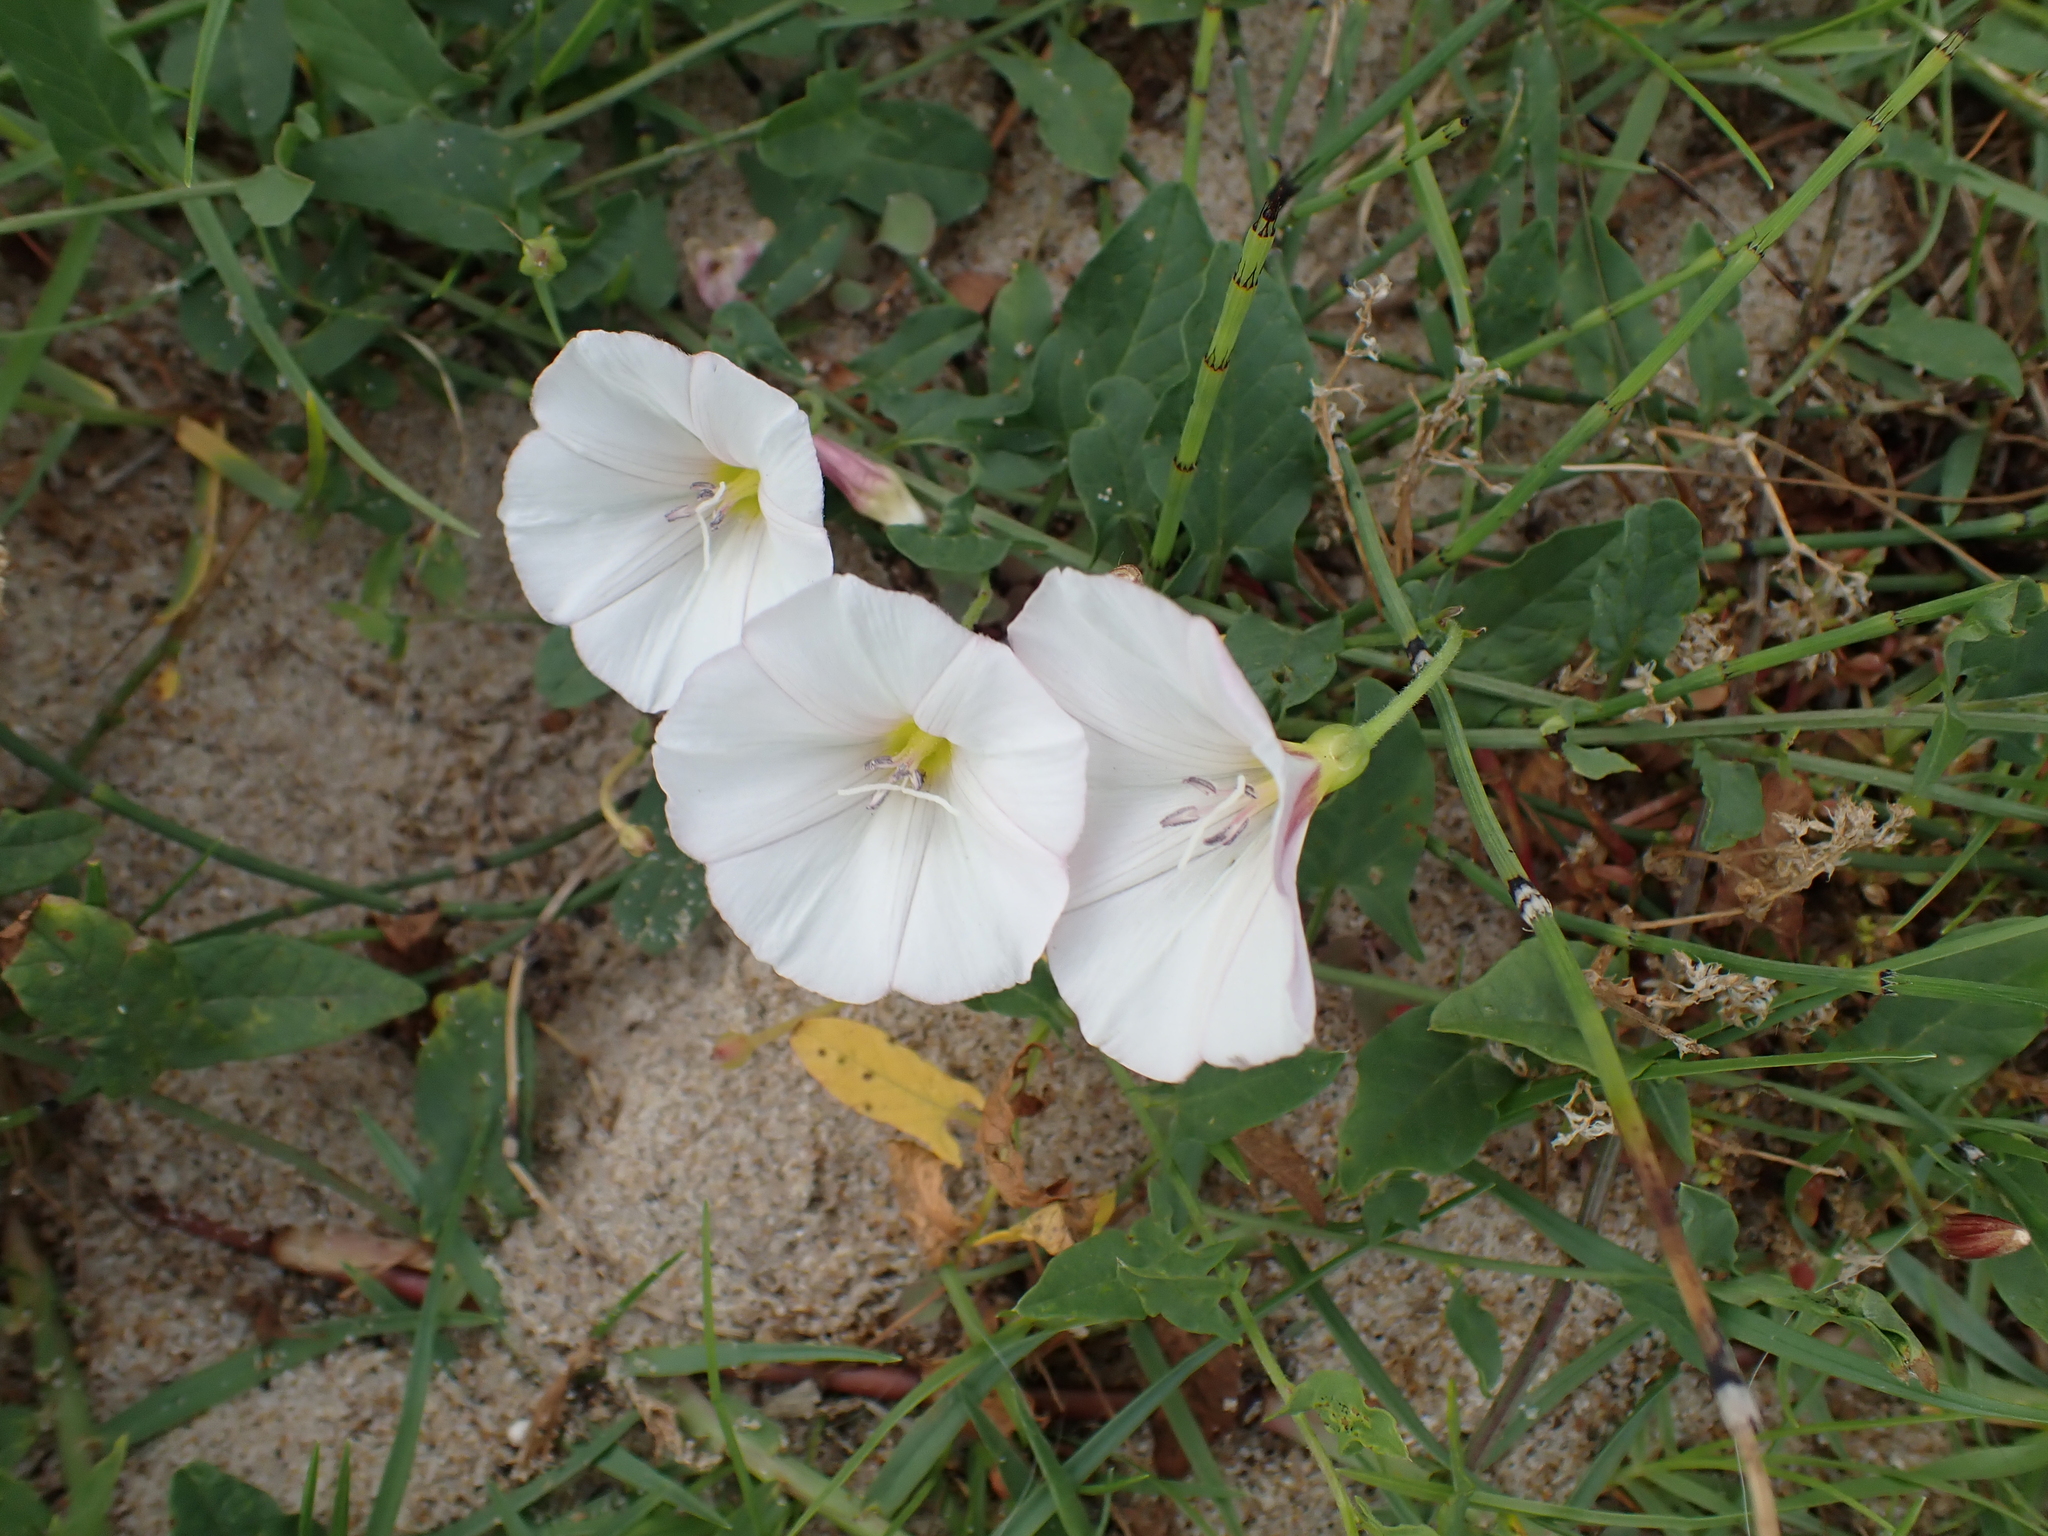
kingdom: Plantae
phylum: Tracheophyta
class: Magnoliopsida
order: Solanales
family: Convolvulaceae
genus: Convolvulus
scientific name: Convolvulus arvensis
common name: Field bindweed
